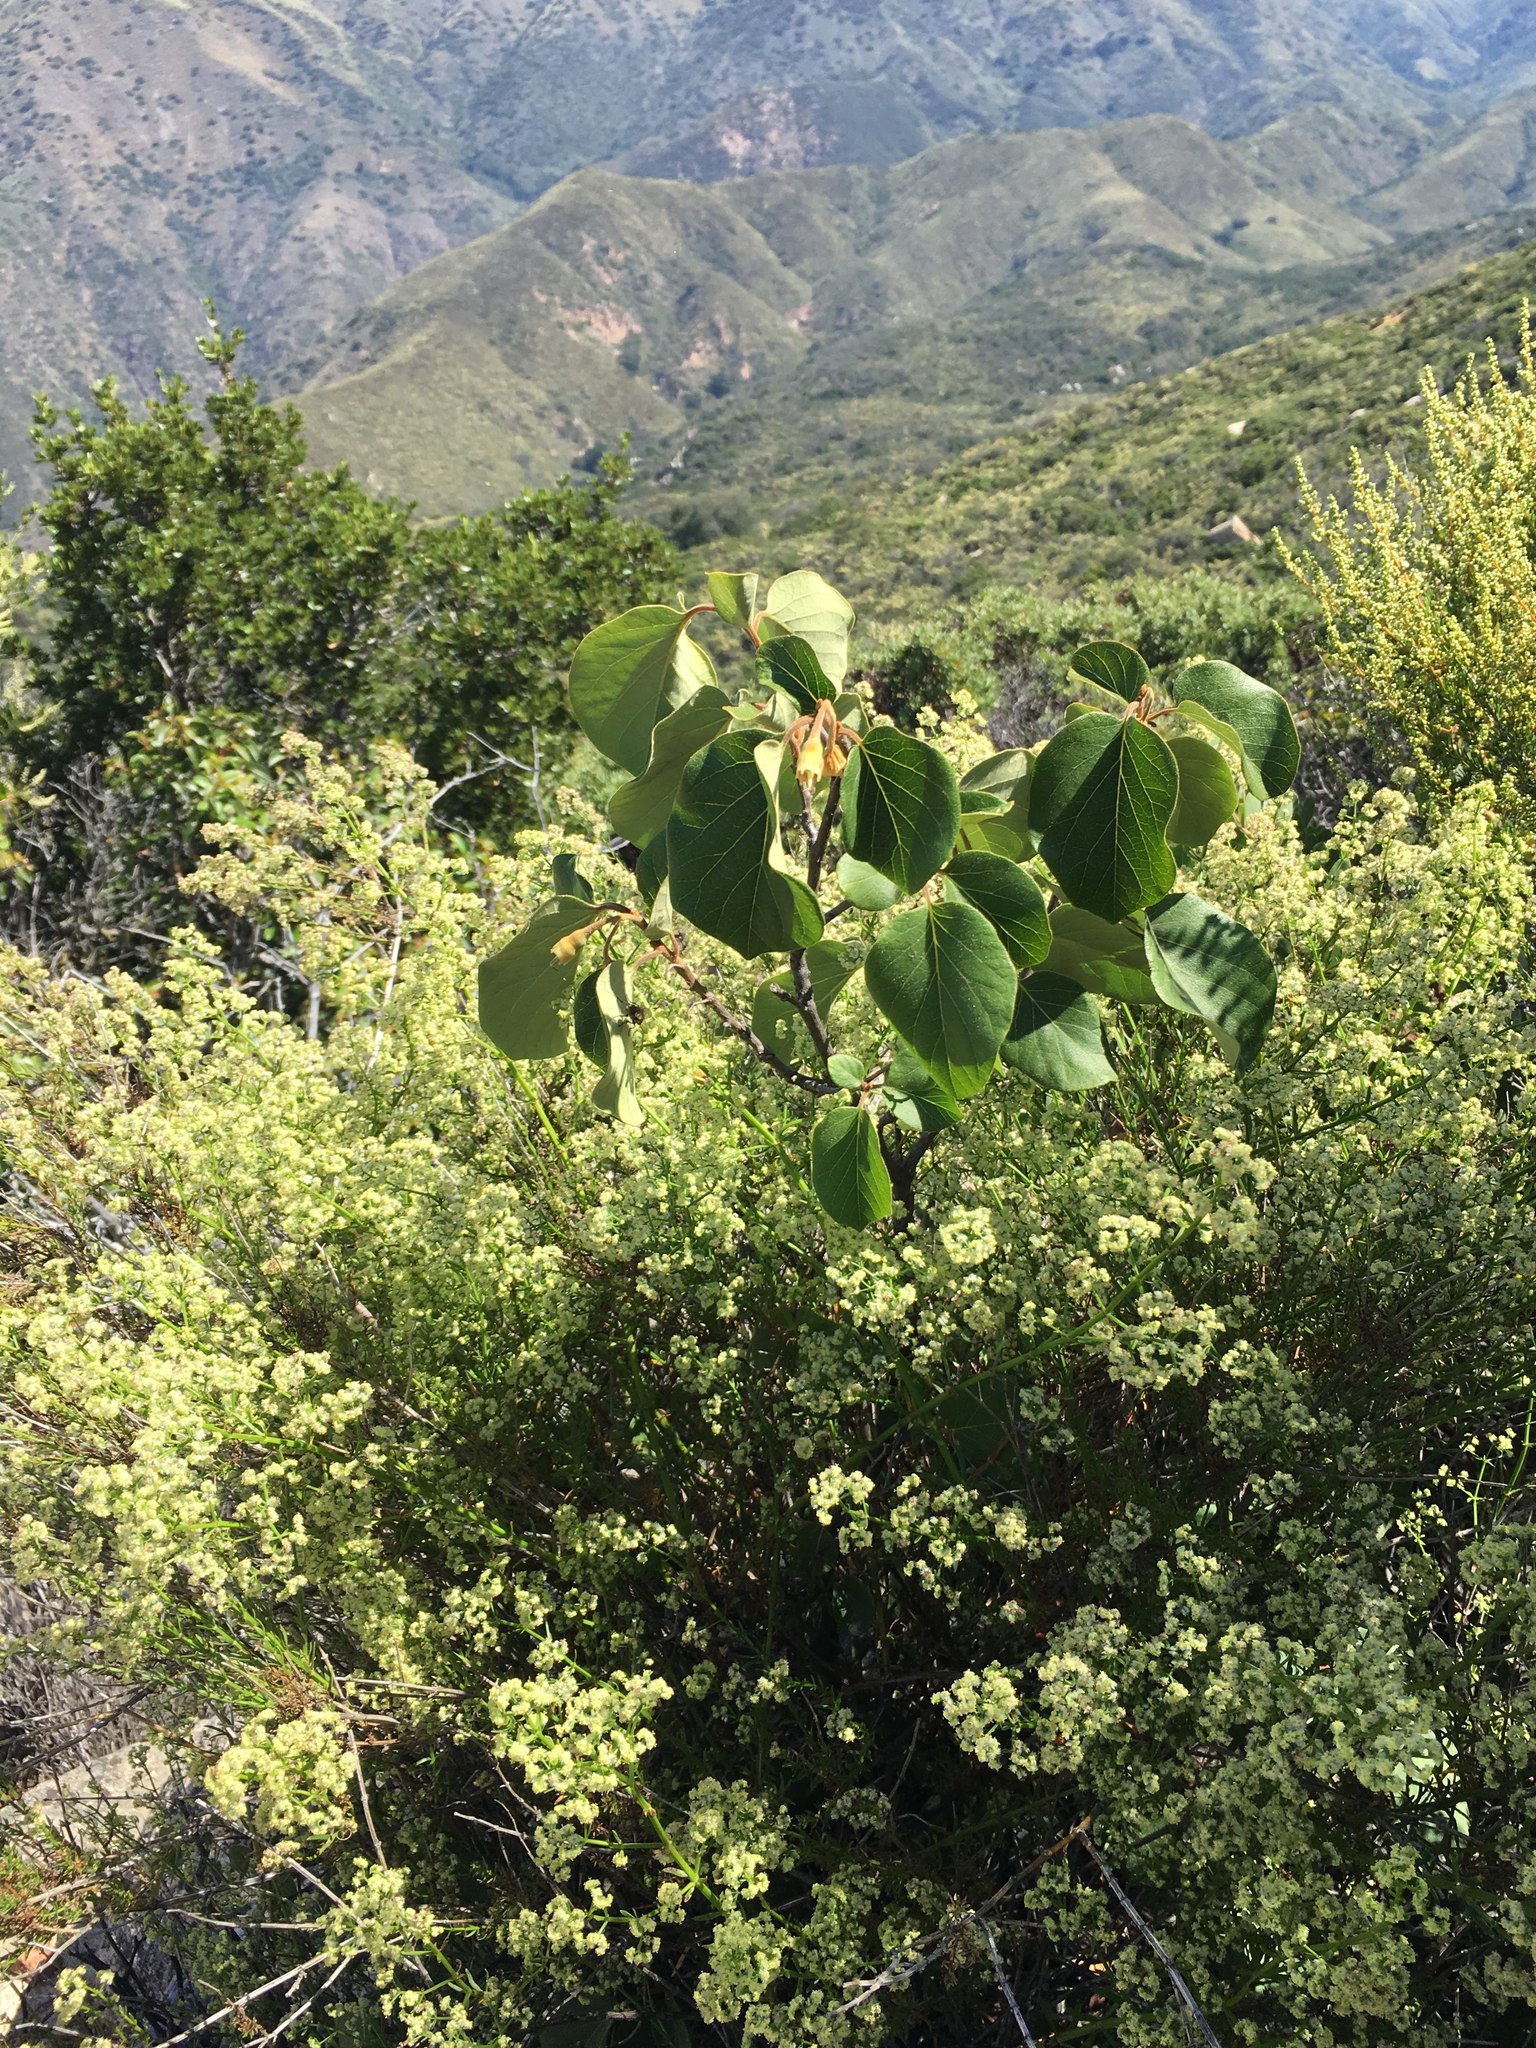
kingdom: Plantae
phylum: Tracheophyta
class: Magnoliopsida
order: Ericales
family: Styracaceae
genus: Styrax
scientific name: Styrax redivivus
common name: California styrax
